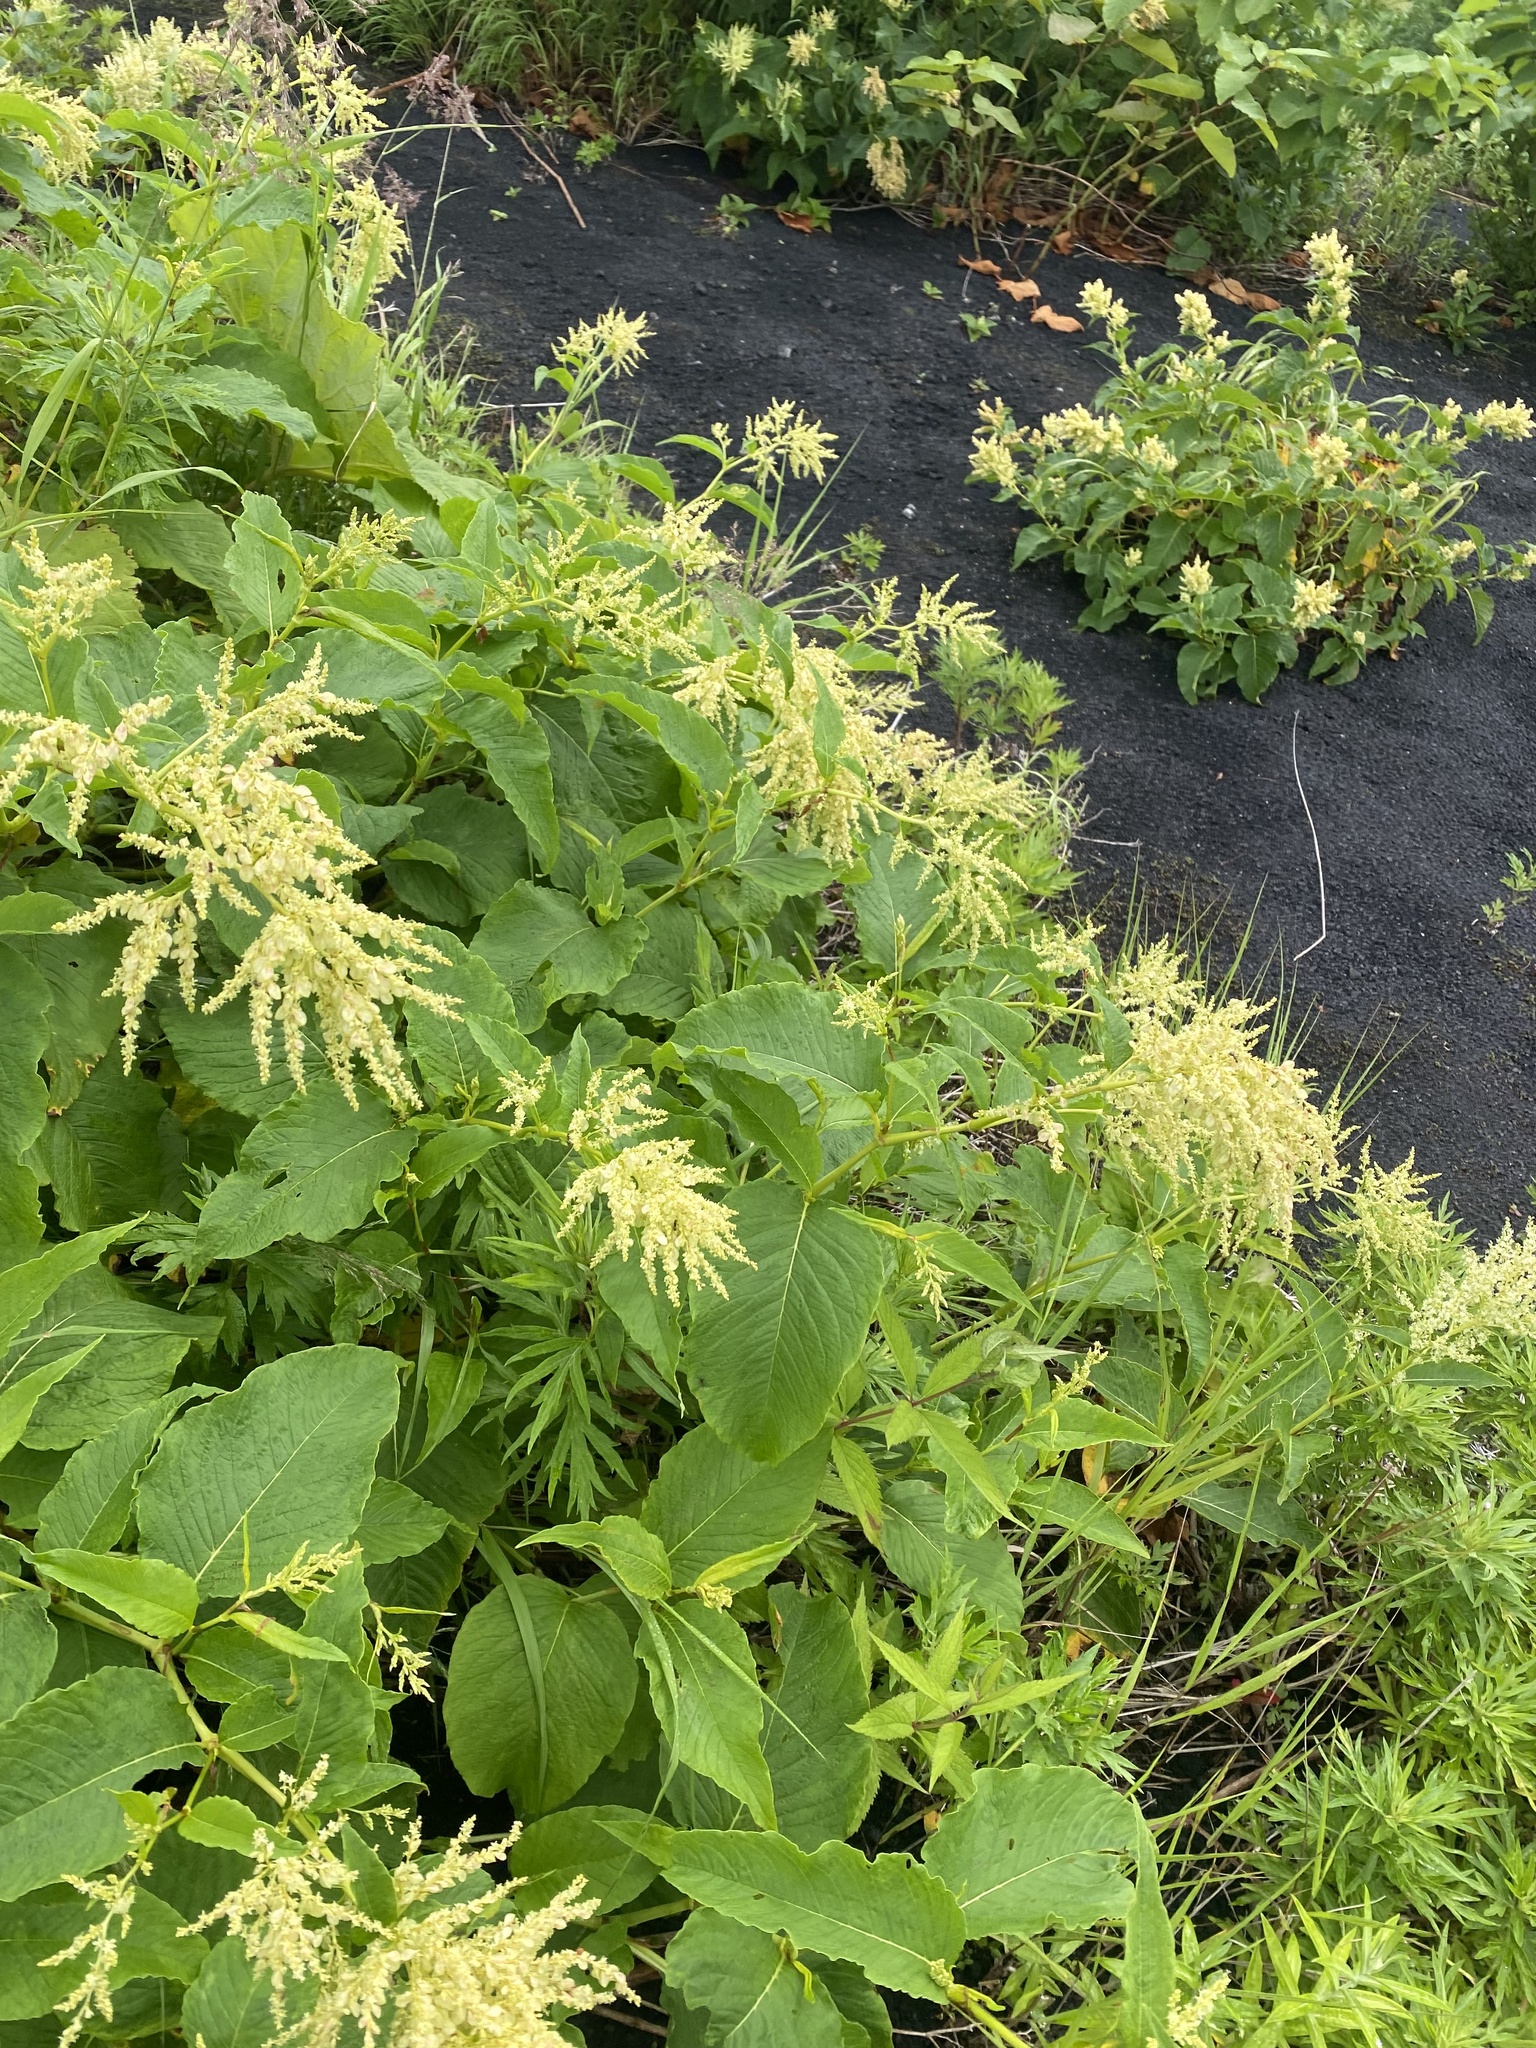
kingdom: Plantae
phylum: Tracheophyta
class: Magnoliopsida
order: Caryophyllales
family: Polygonaceae
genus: Koenigia
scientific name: Koenigia weyrichii
